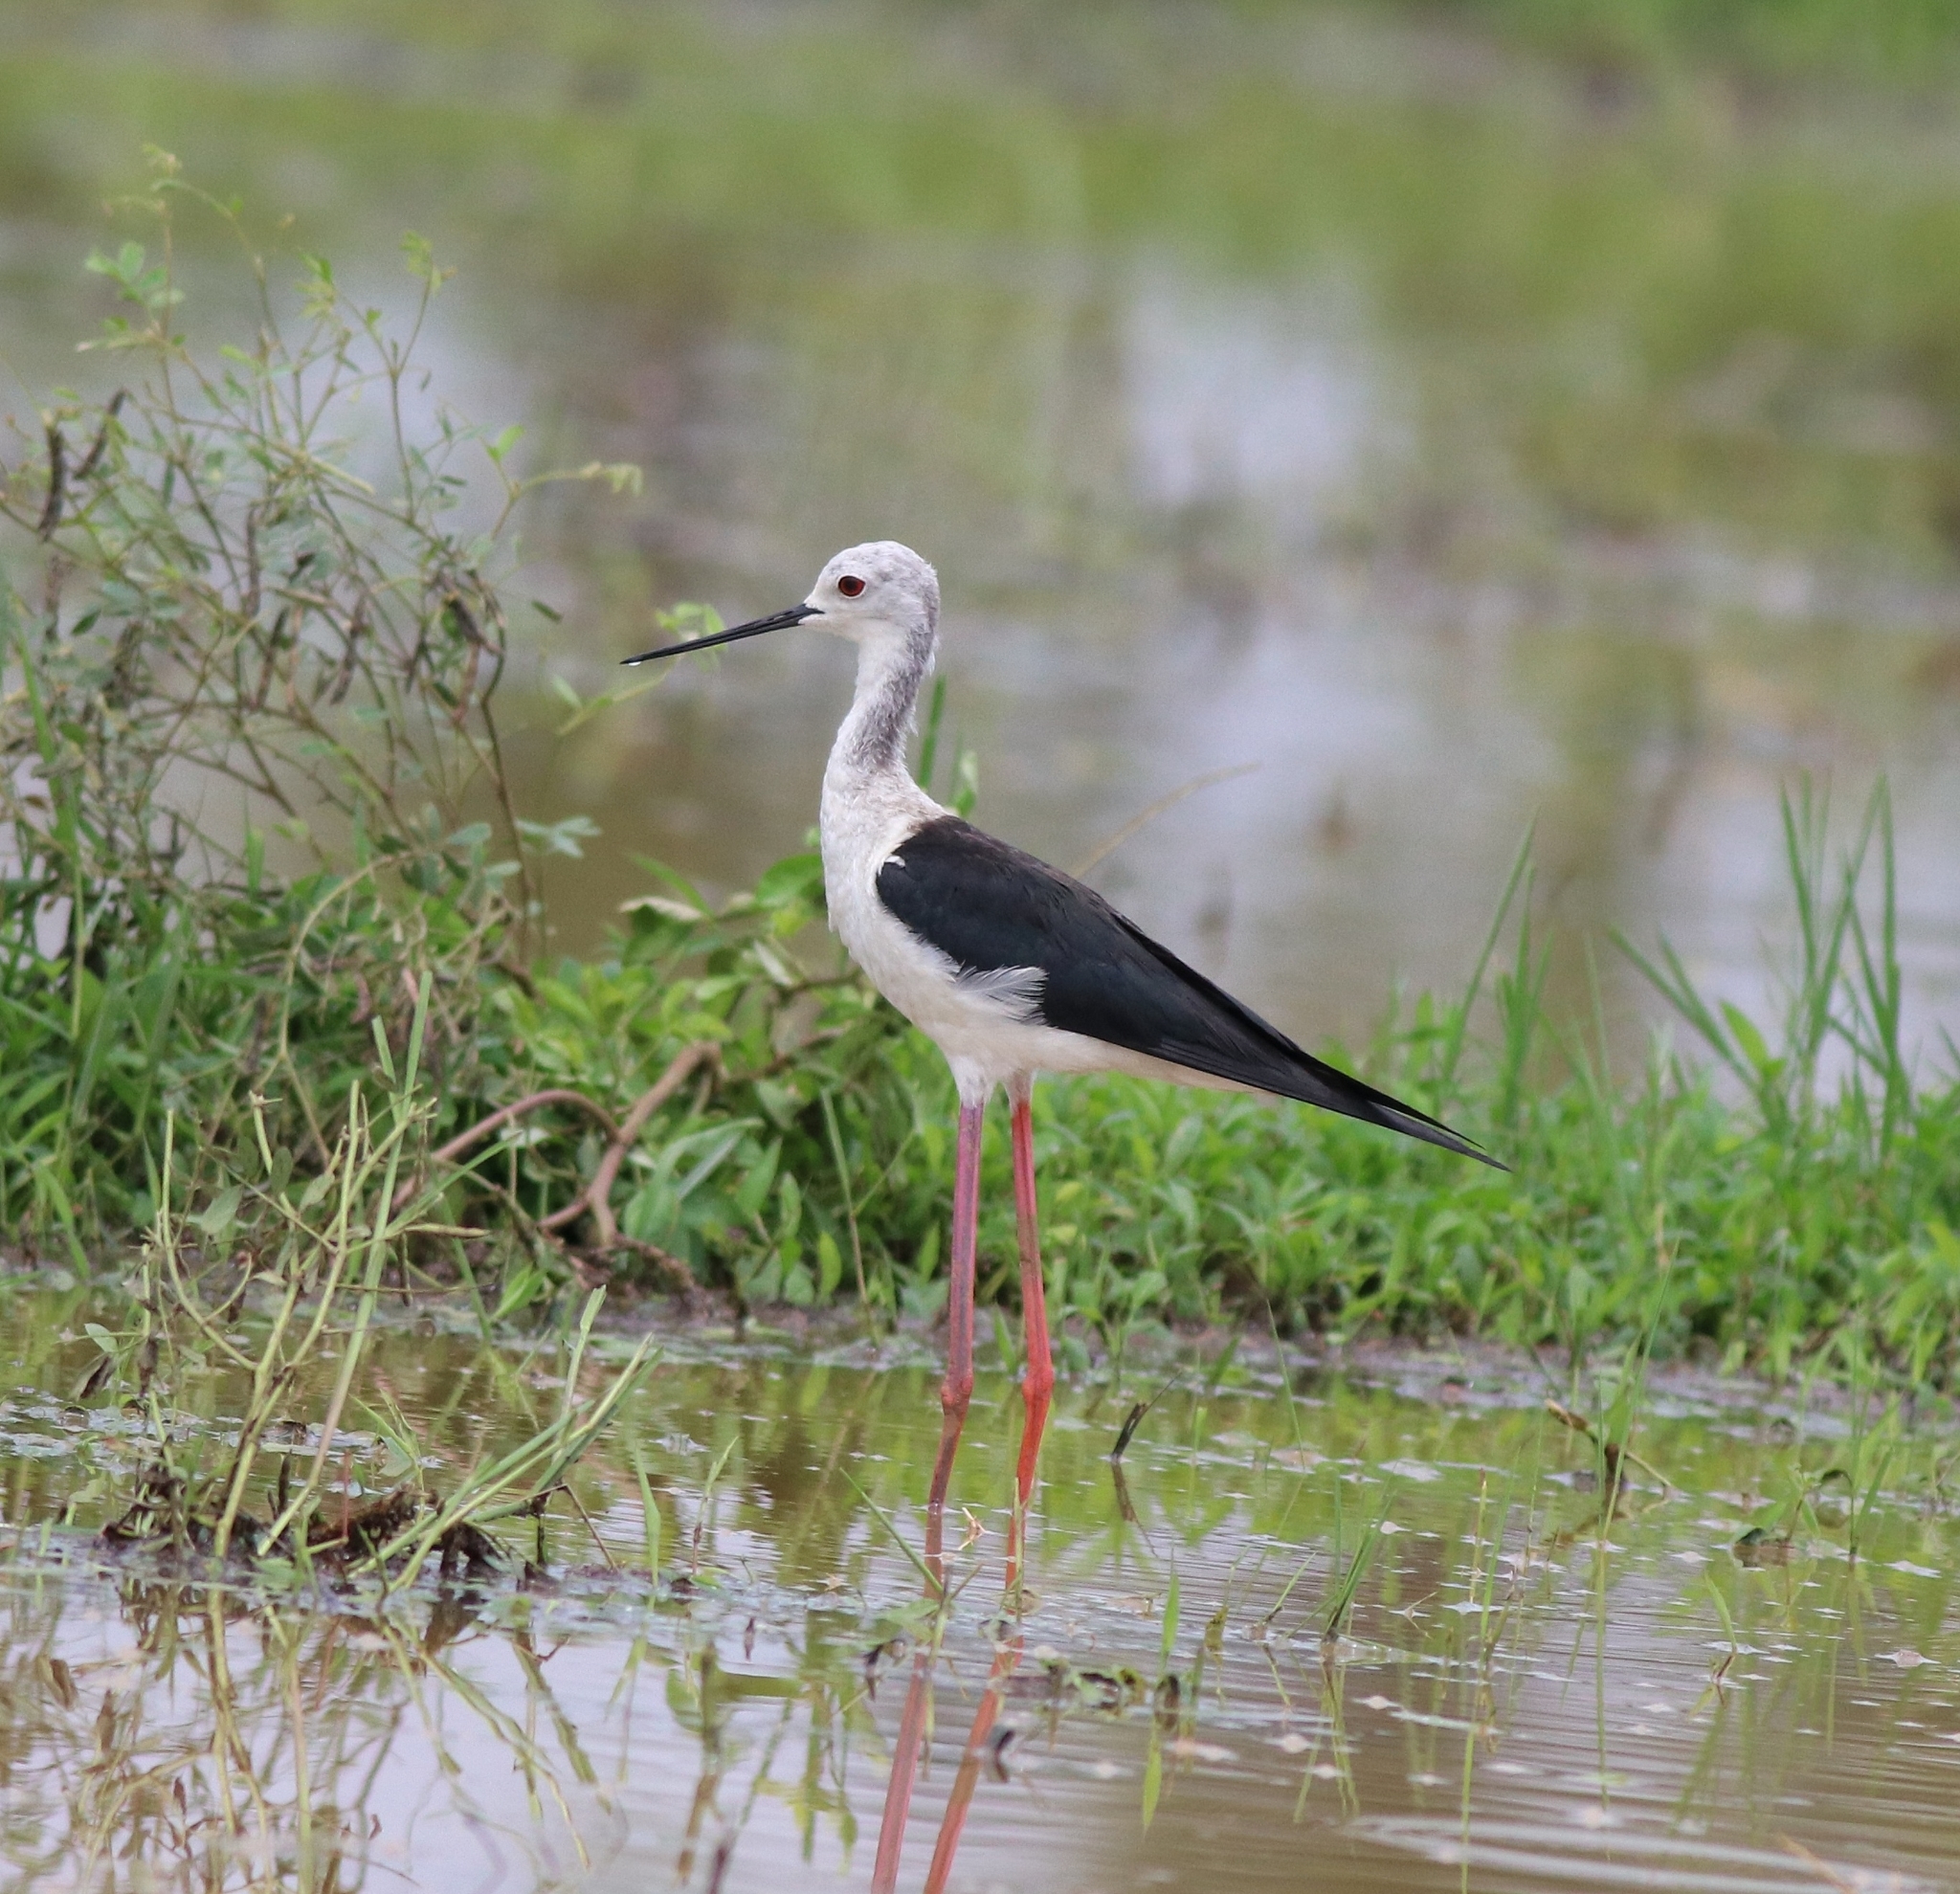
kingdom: Animalia
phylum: Chordata
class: Aves
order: Charadriiformes
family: Recurvirostridae
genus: Himantopus
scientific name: Himantopus himantopus
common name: Black-winged stilt
